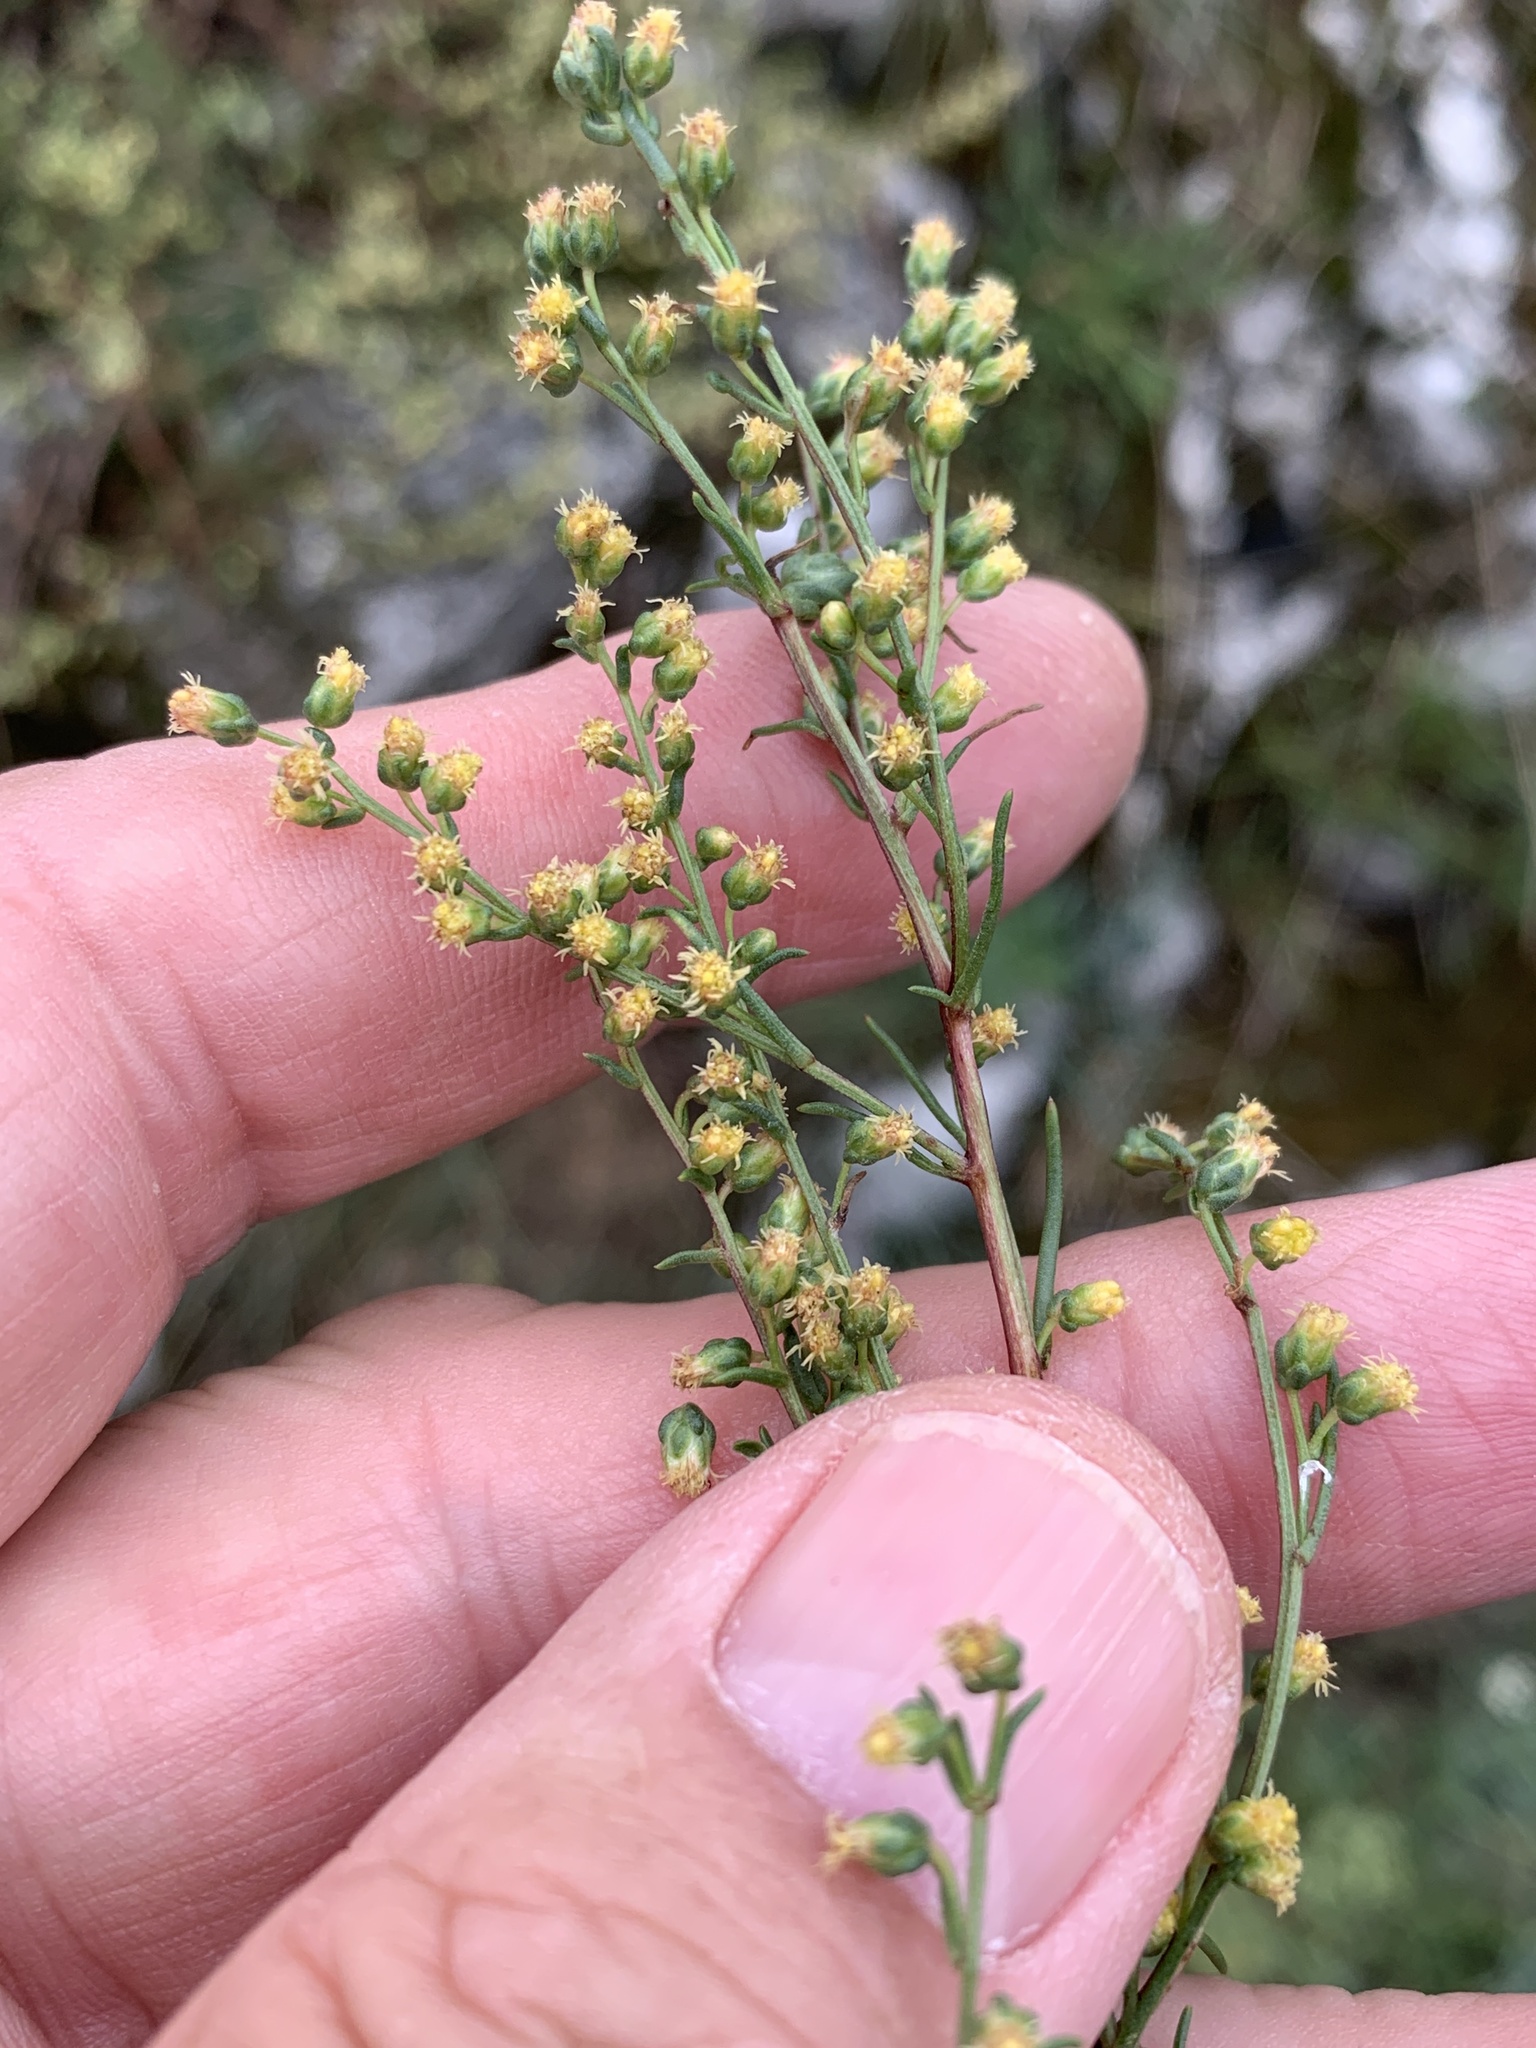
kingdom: Plantae
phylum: Tracheophyta
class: Magnoliopsida
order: Asterales
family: Asteraceae
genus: Artemisia
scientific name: Artemisia campestris
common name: Field wormwood
